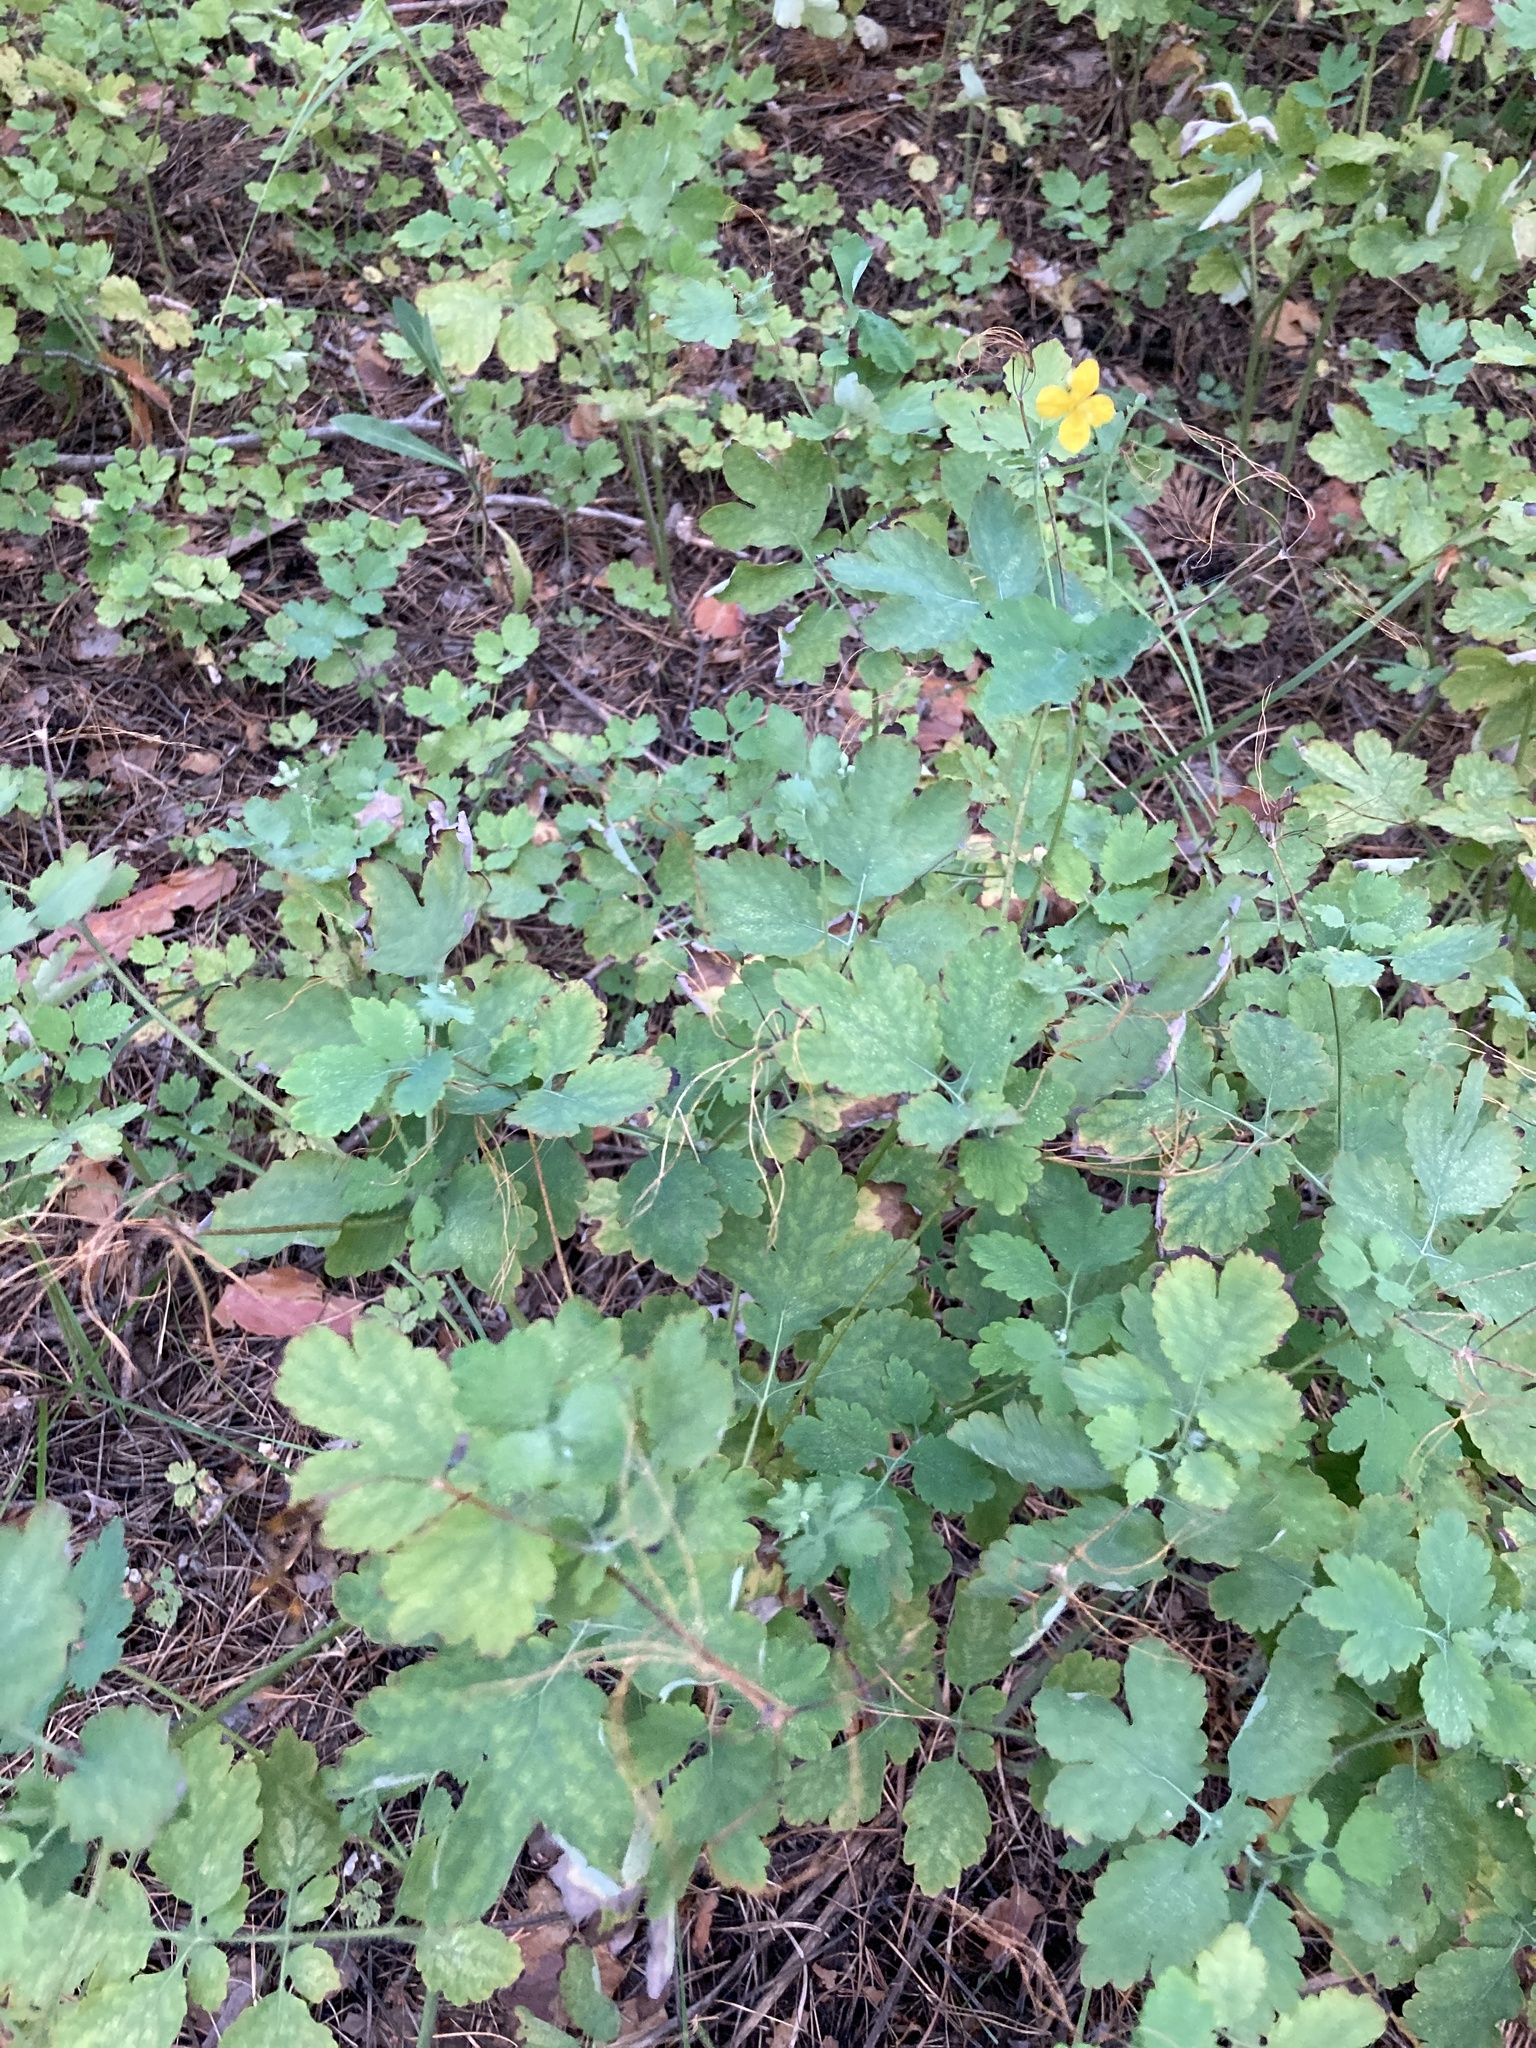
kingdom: Plantae
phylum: Tracheophyta
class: Magnoliopsida
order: Ranunculales
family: Papaveraceae
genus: Chelidonium
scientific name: Chelidonium majus
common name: Greater celandine
